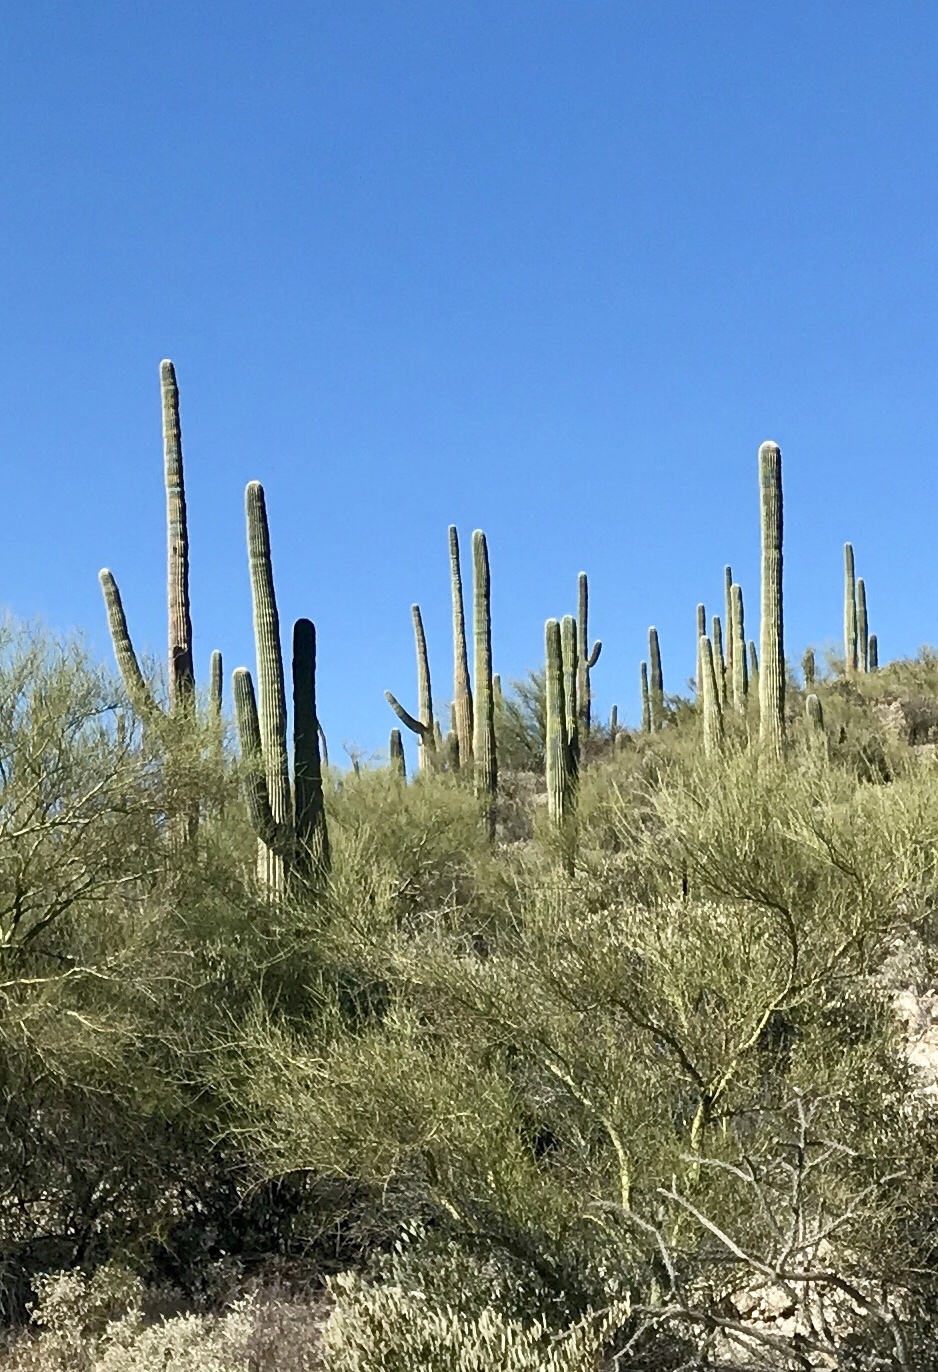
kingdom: Plantae
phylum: Tracheophyta
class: Magnoliopsida
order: Caryophyllales
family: Cactaceae
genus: Carnegiea
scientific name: Carnegiea gigantea
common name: Saguaro
